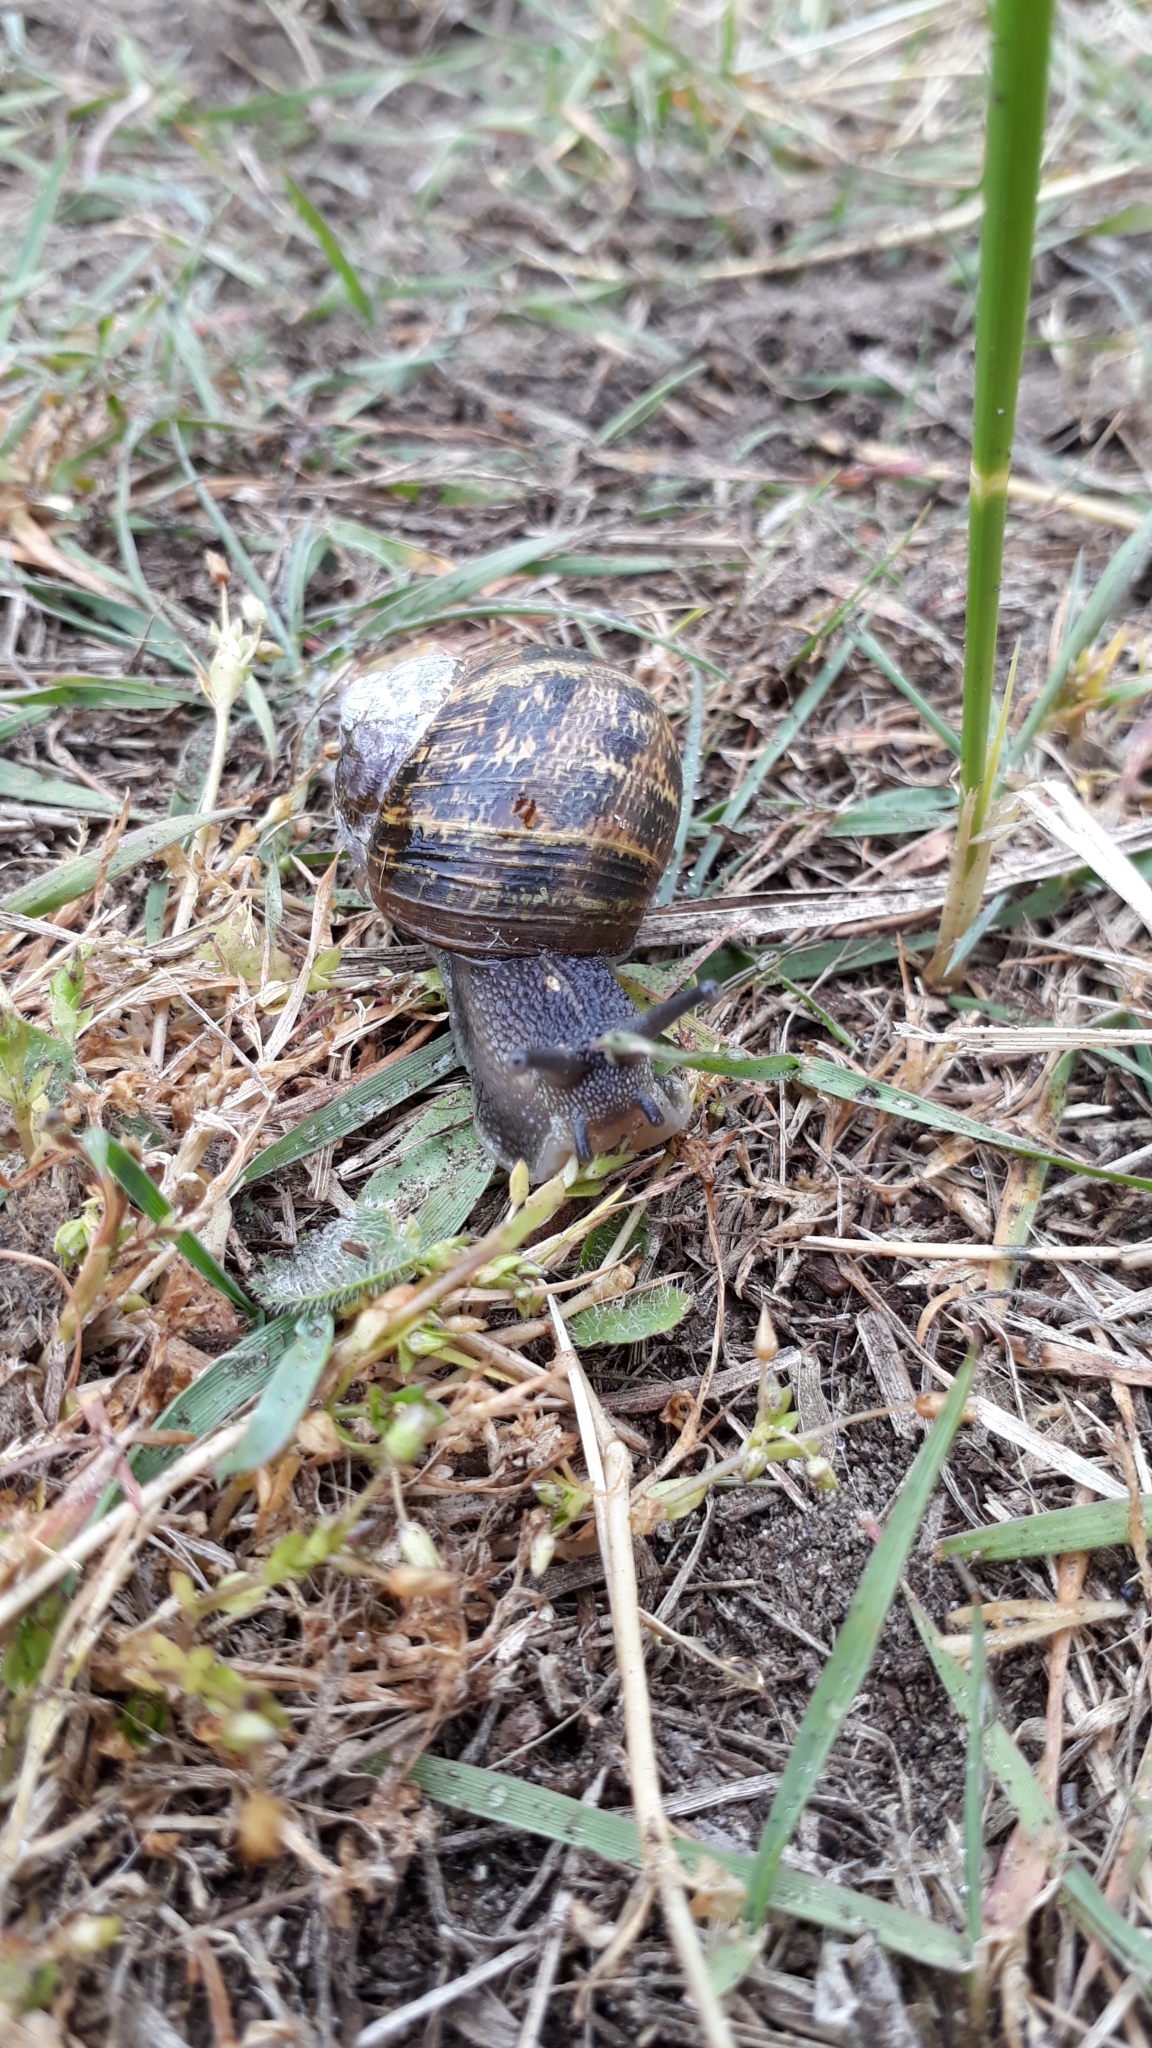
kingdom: Animalia
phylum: Mollusca
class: Gastropoda
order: Stylommatophora
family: Helicidae
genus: Cornu
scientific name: Cornu aspersum
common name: Brown garden snail
